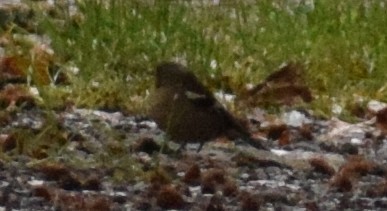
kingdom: Animalia
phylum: Chordata
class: Aves
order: Passeriformes
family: Fringillidae
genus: Fringilla
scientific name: Fringilla coelebs
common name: Common chaffinch
